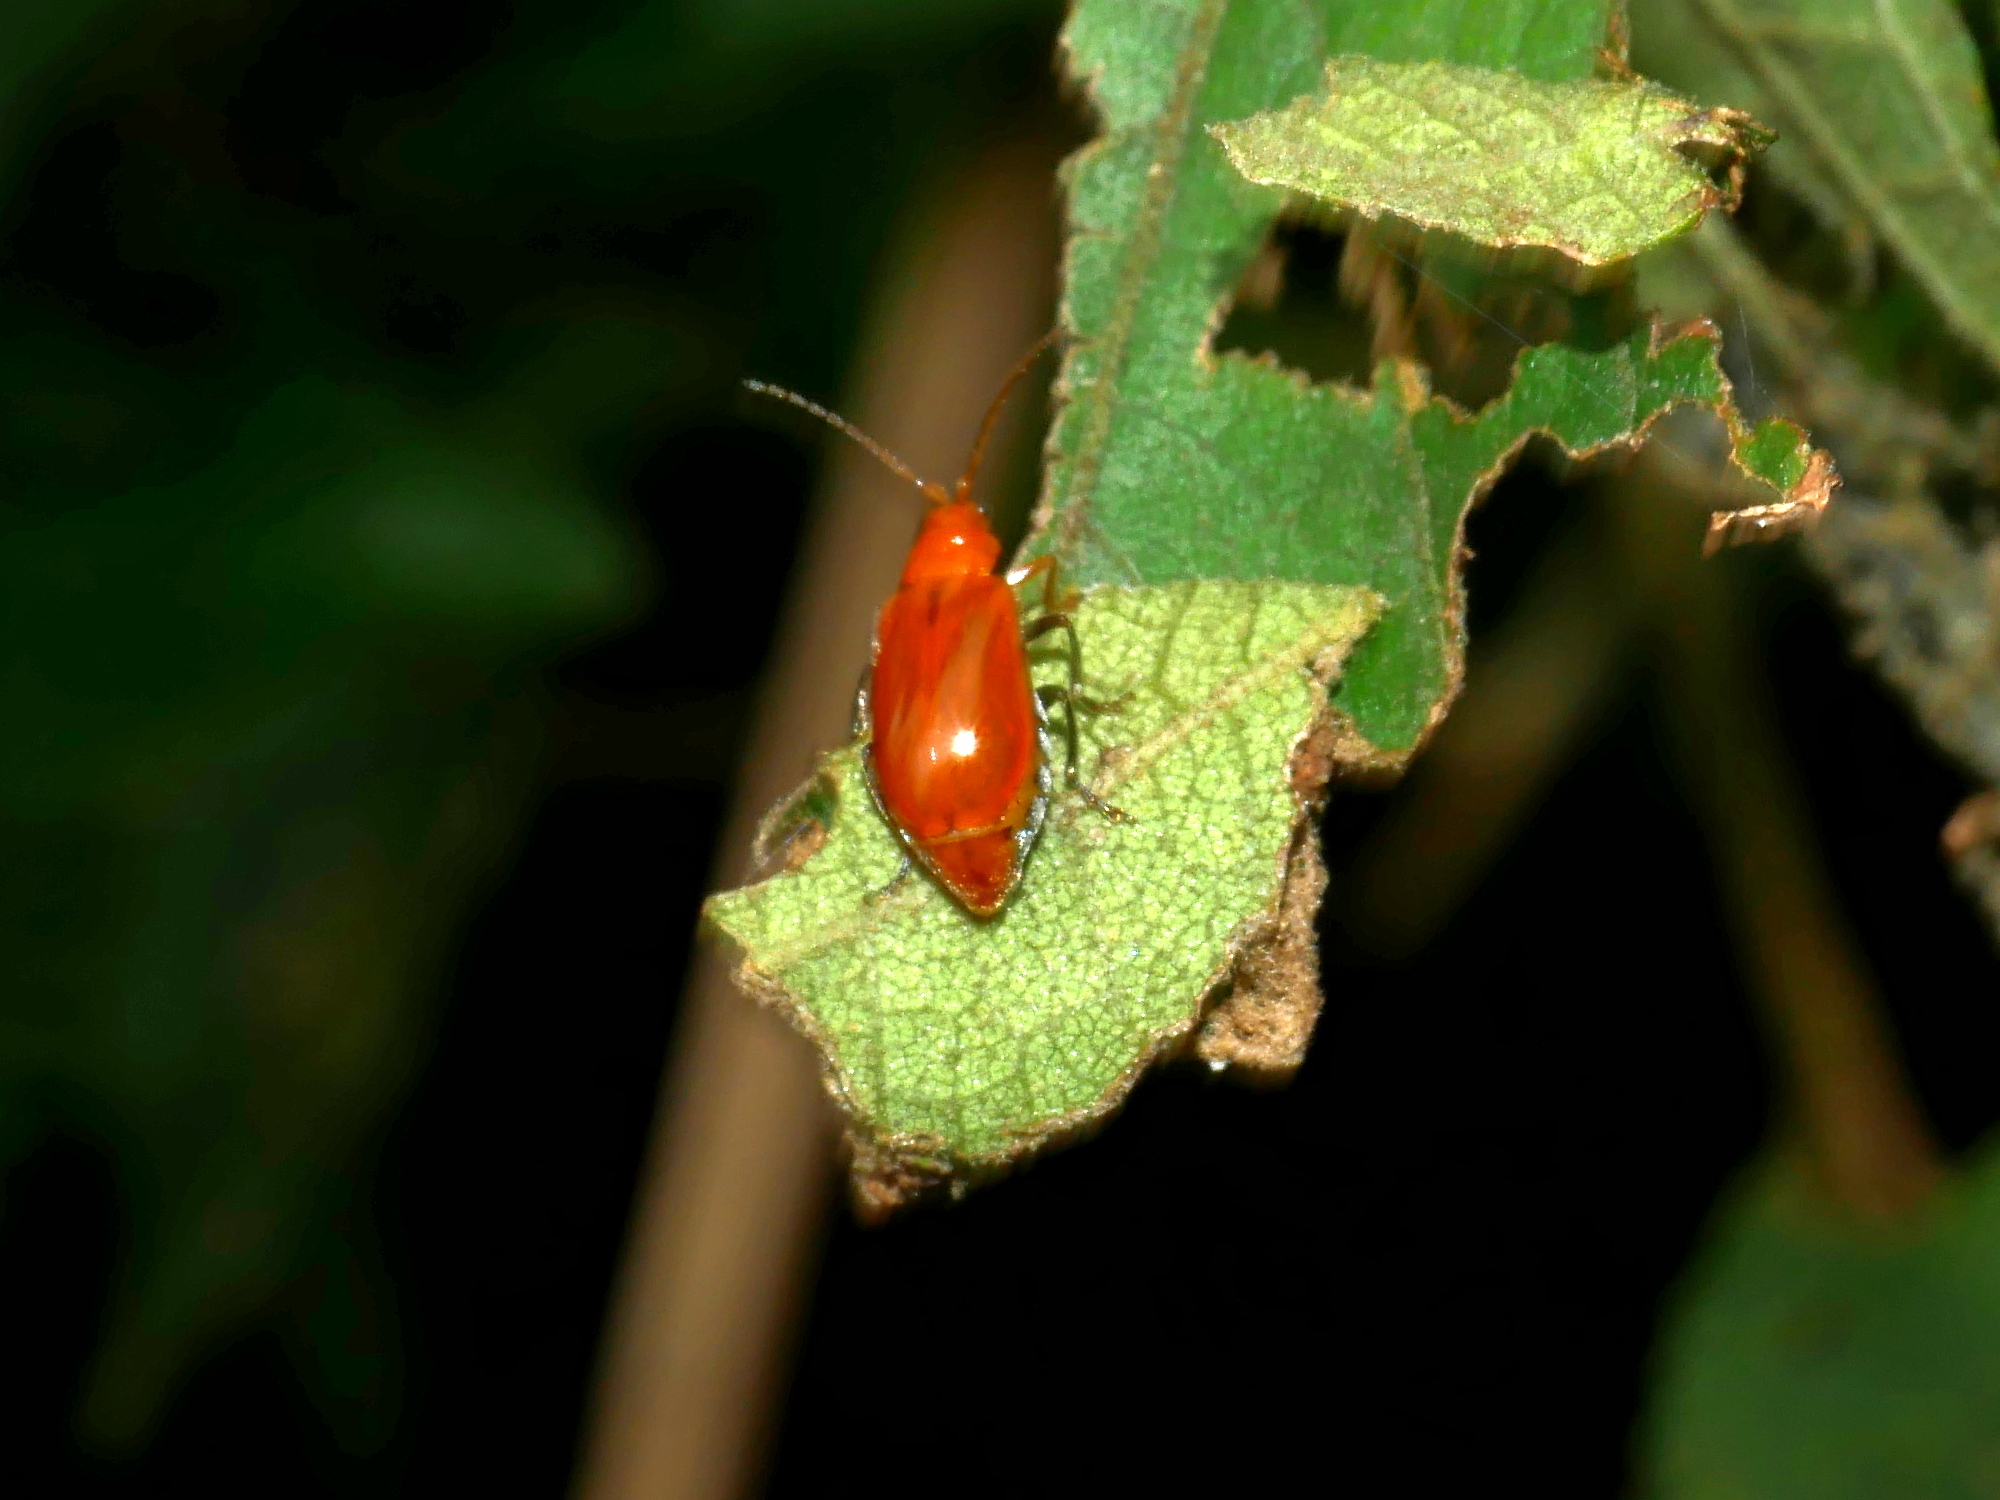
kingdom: Animalia
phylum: Arthropoda
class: Insecta
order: Coleoptera
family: Chrysomelidae
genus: Aulacophora
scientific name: Aulacophora indica
